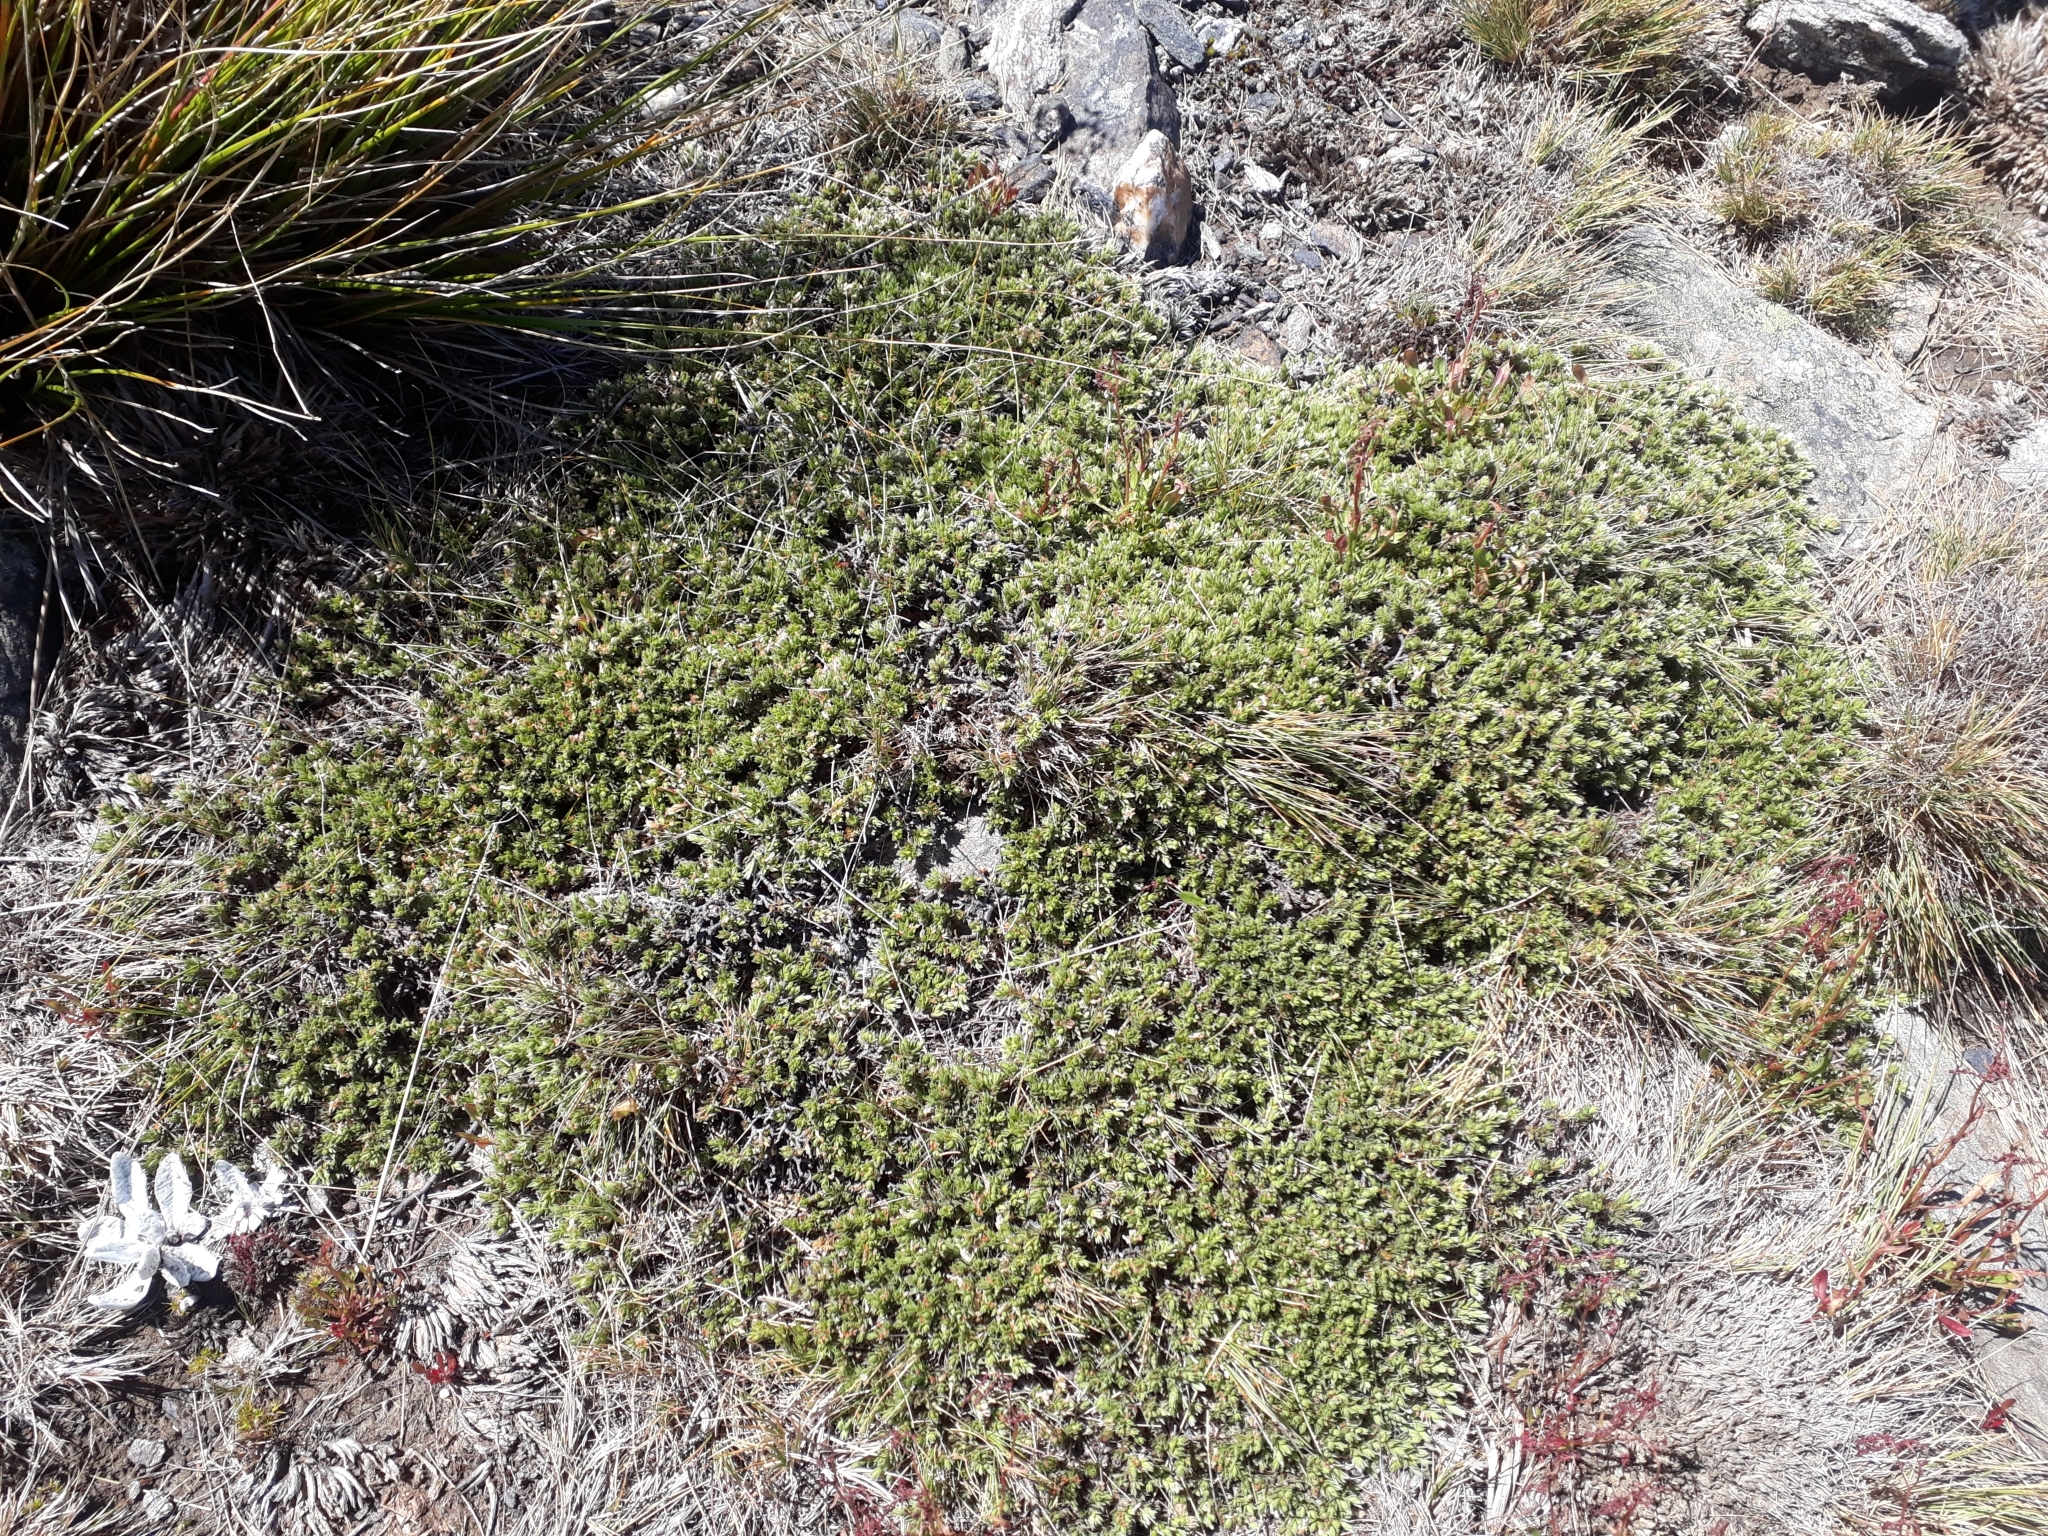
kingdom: Plantae
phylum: Tracheophyta
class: Magnoliopsida
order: Malvales
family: Thymelaeaceae
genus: Pimelea
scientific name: Pimelea oreophila
